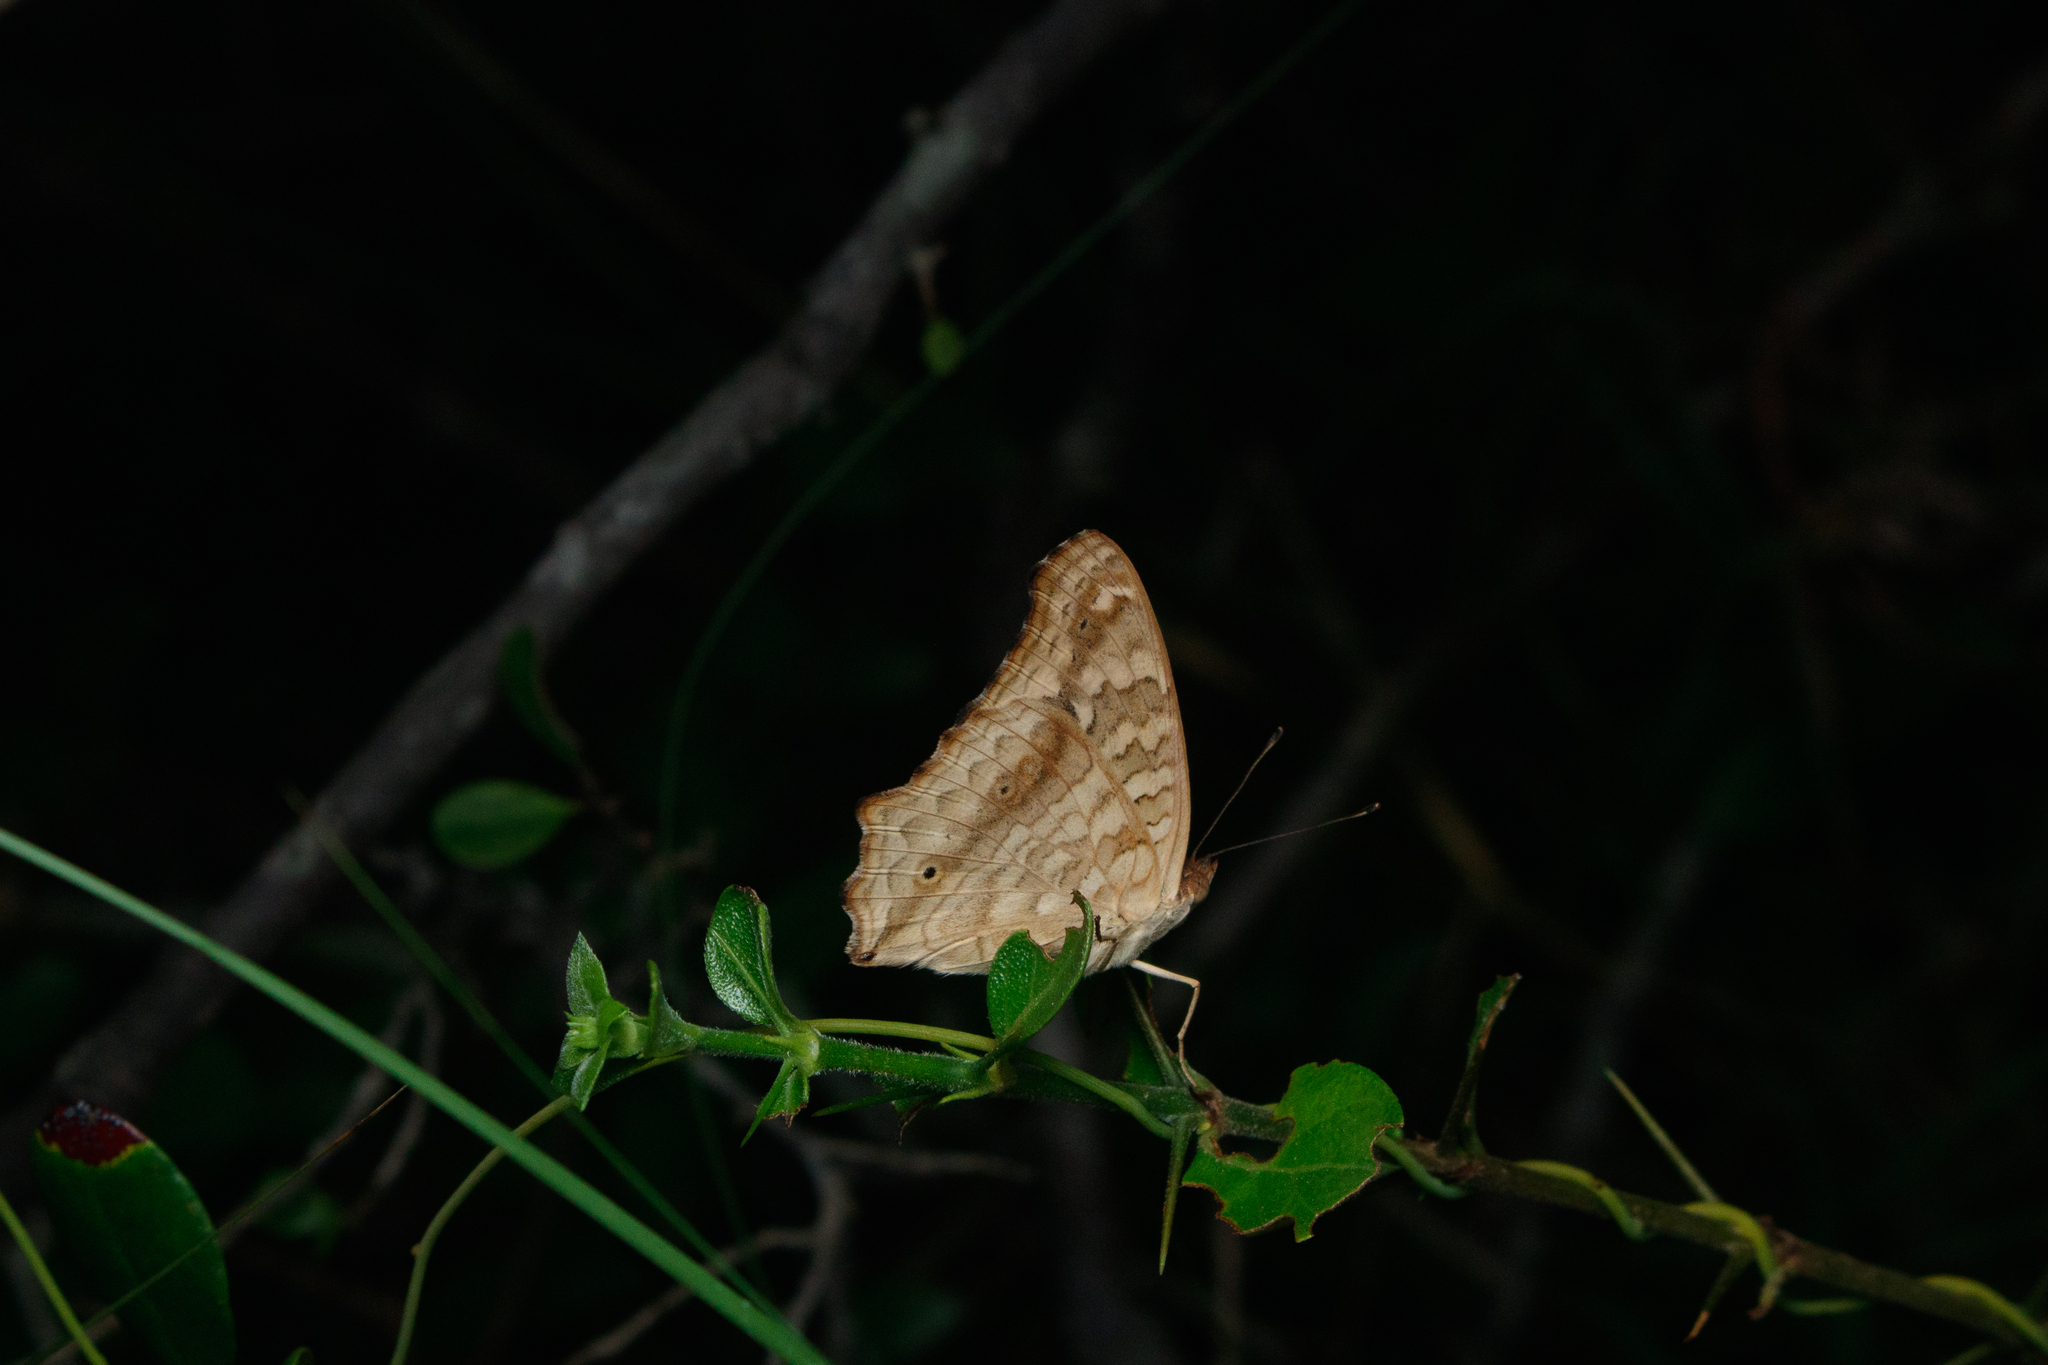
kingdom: Animalia
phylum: Arthropoda
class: Insecta
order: Lepidoptera
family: Nymphalidae
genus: Junonia
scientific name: Junonia lemonias
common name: Lemon pansy
